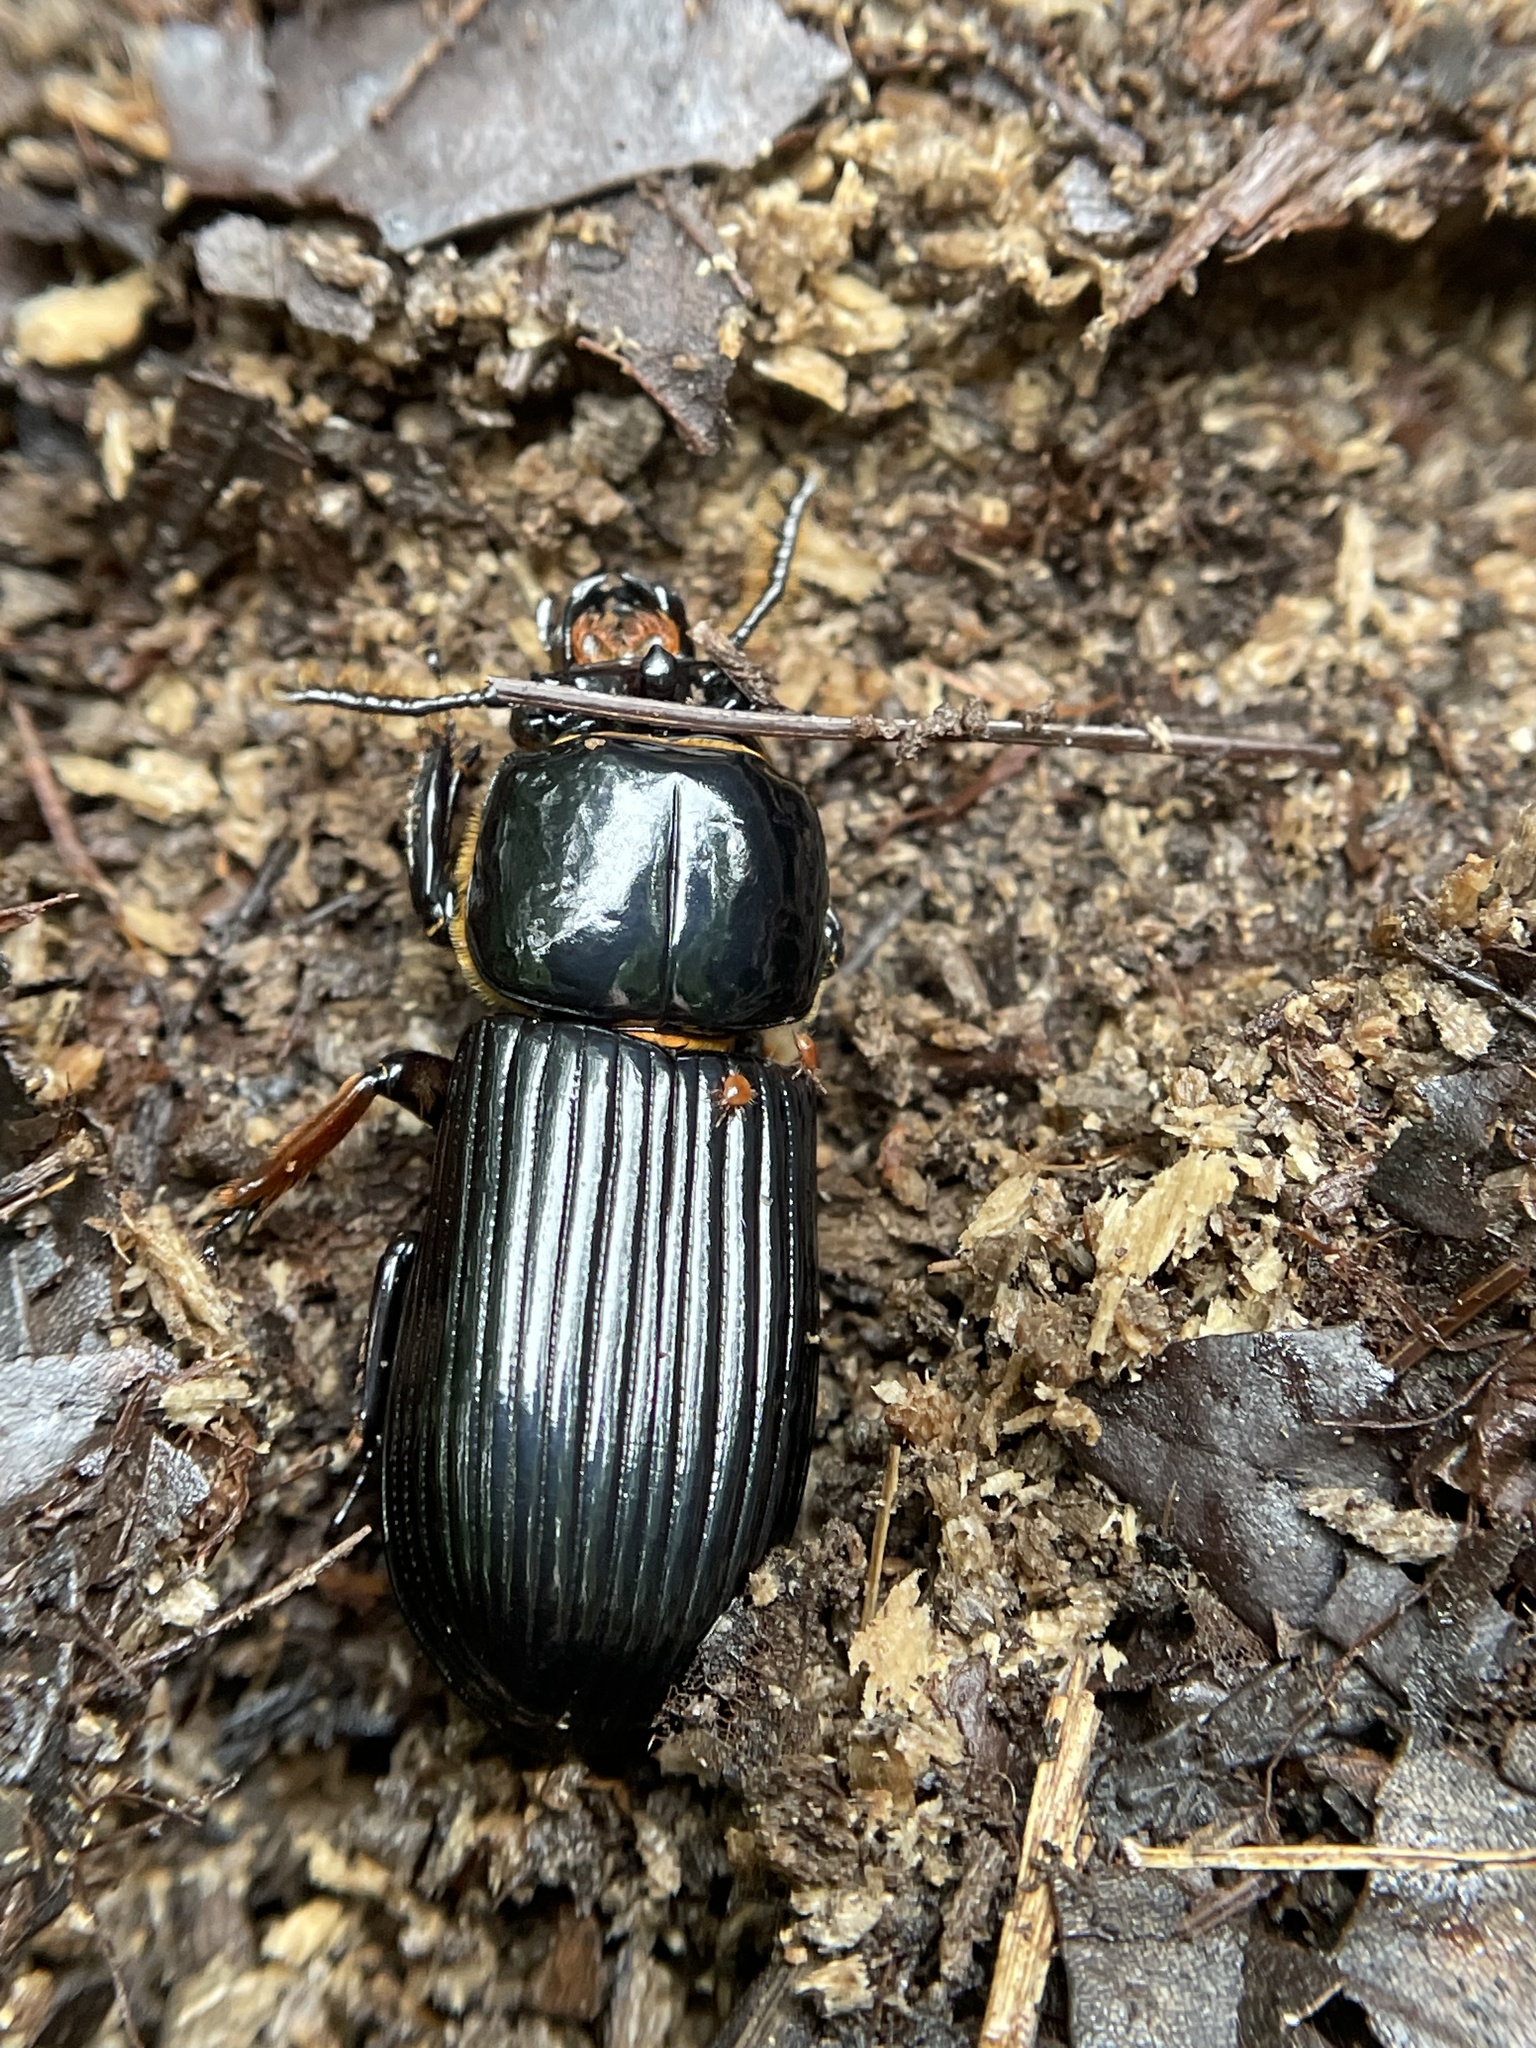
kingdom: Animalia
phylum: Arthropoda
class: Insecta
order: Coleoptera
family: Passalidae
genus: Odontotaenius
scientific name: Odontotaenius disjunctus
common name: Patent leather beetle
